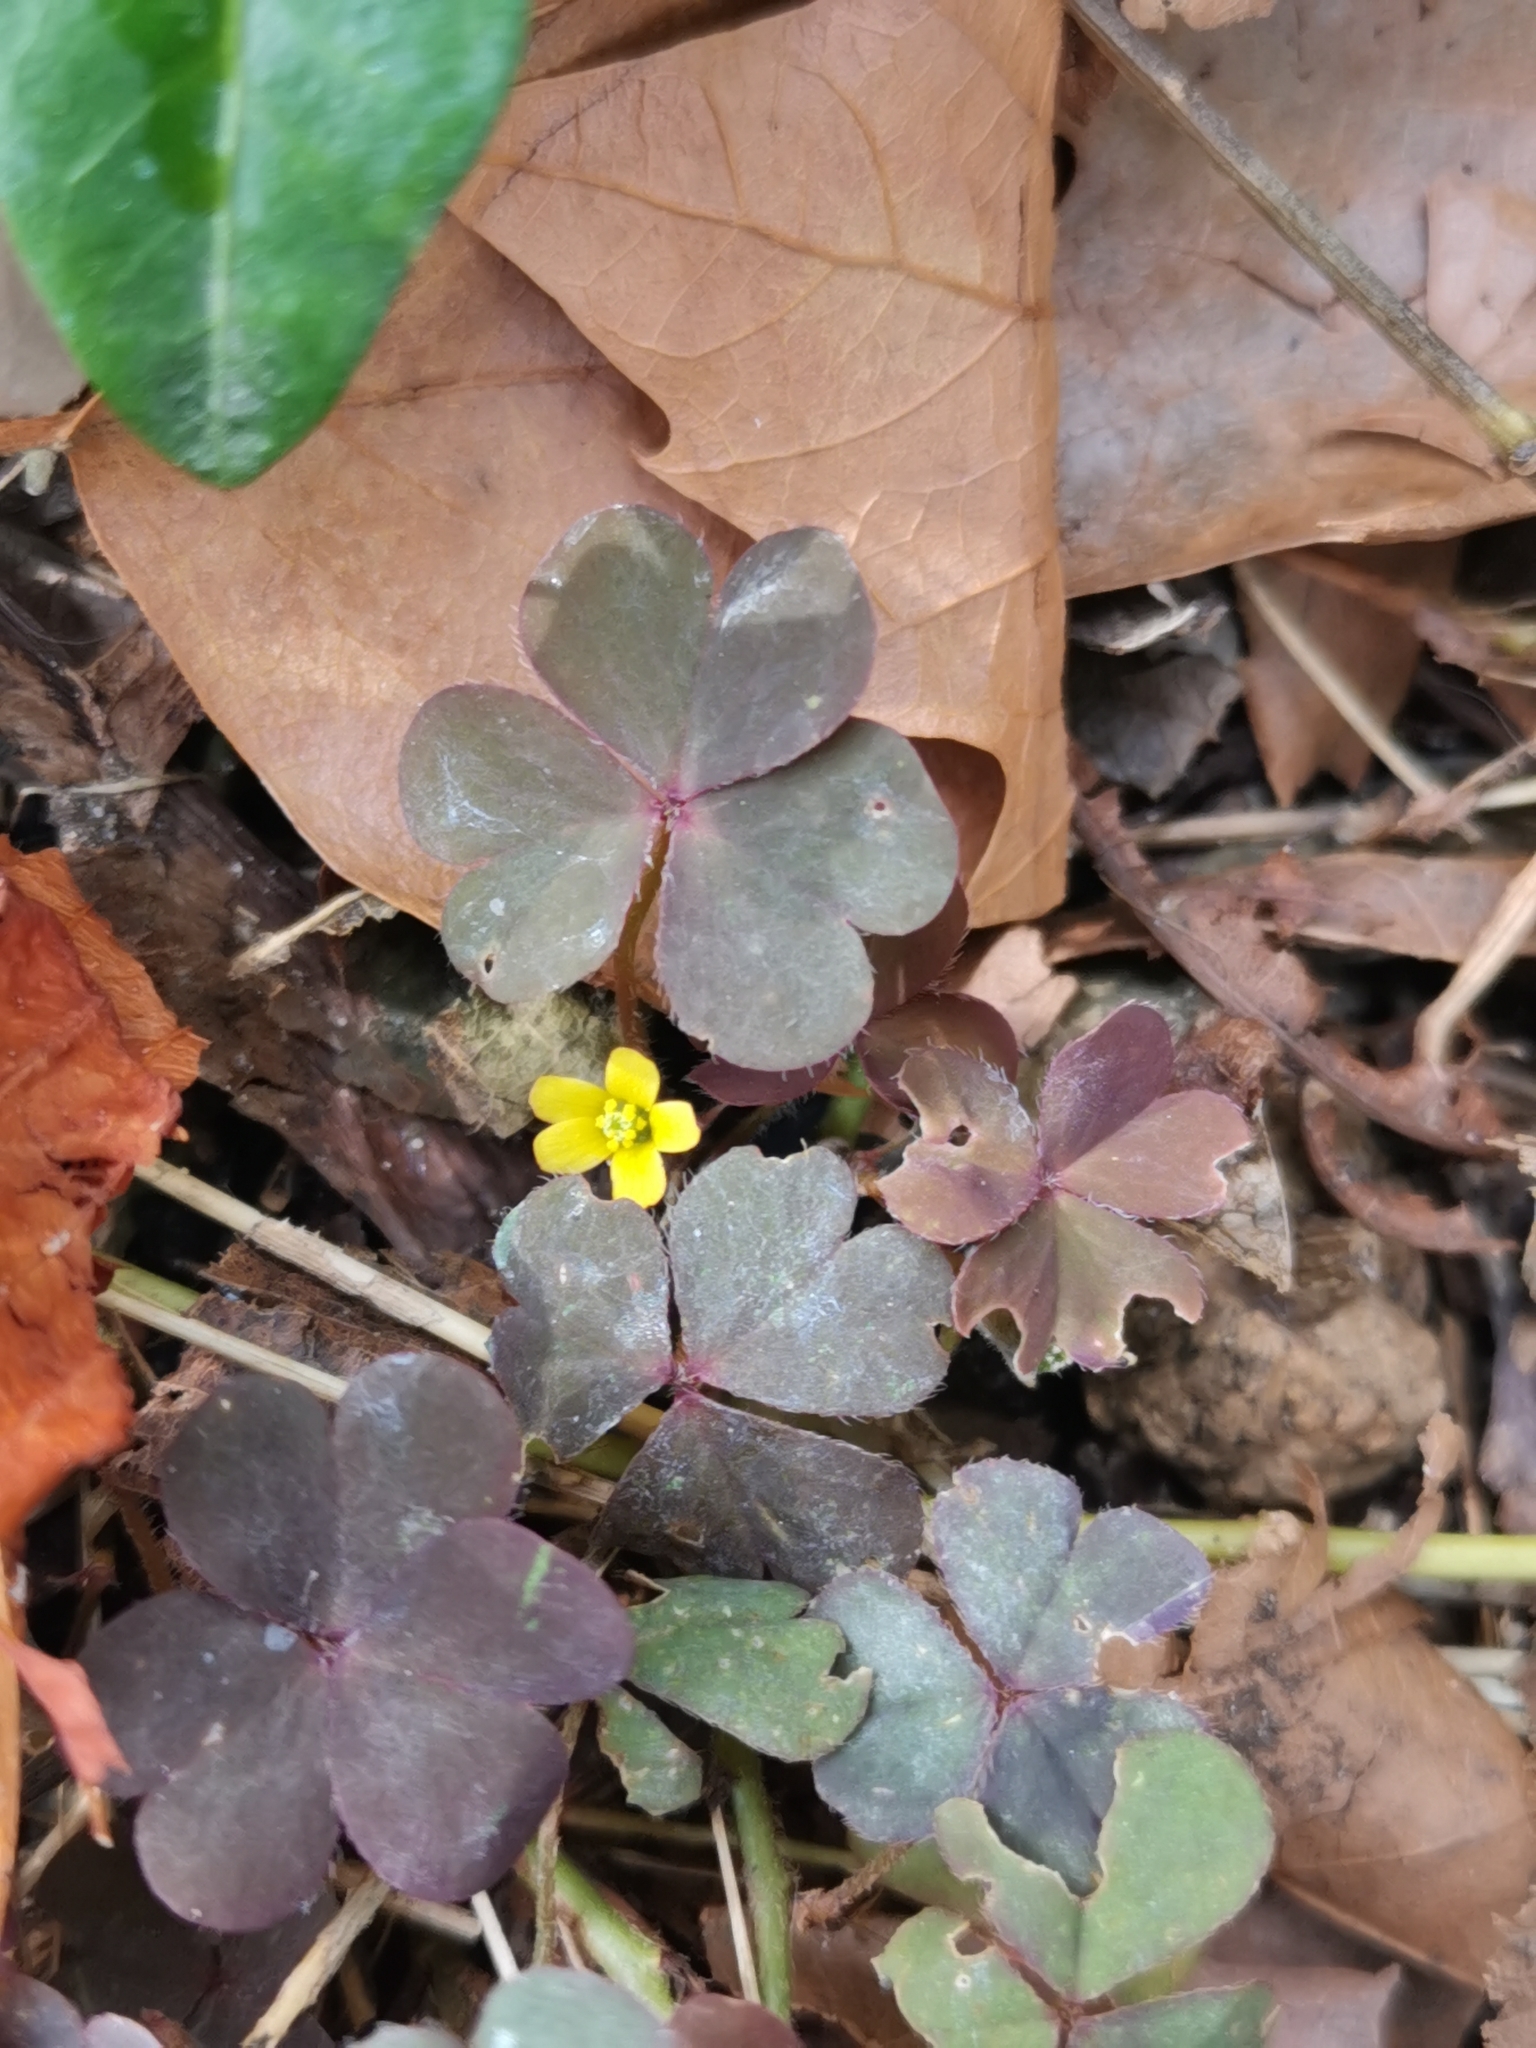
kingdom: Plantae
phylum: Tracheophyta
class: Magnoliopsida
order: Oxalidales
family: Oxalidaceae
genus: Oxalis
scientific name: Oxalis corniculata
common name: Procumbent yellow-sorrel
